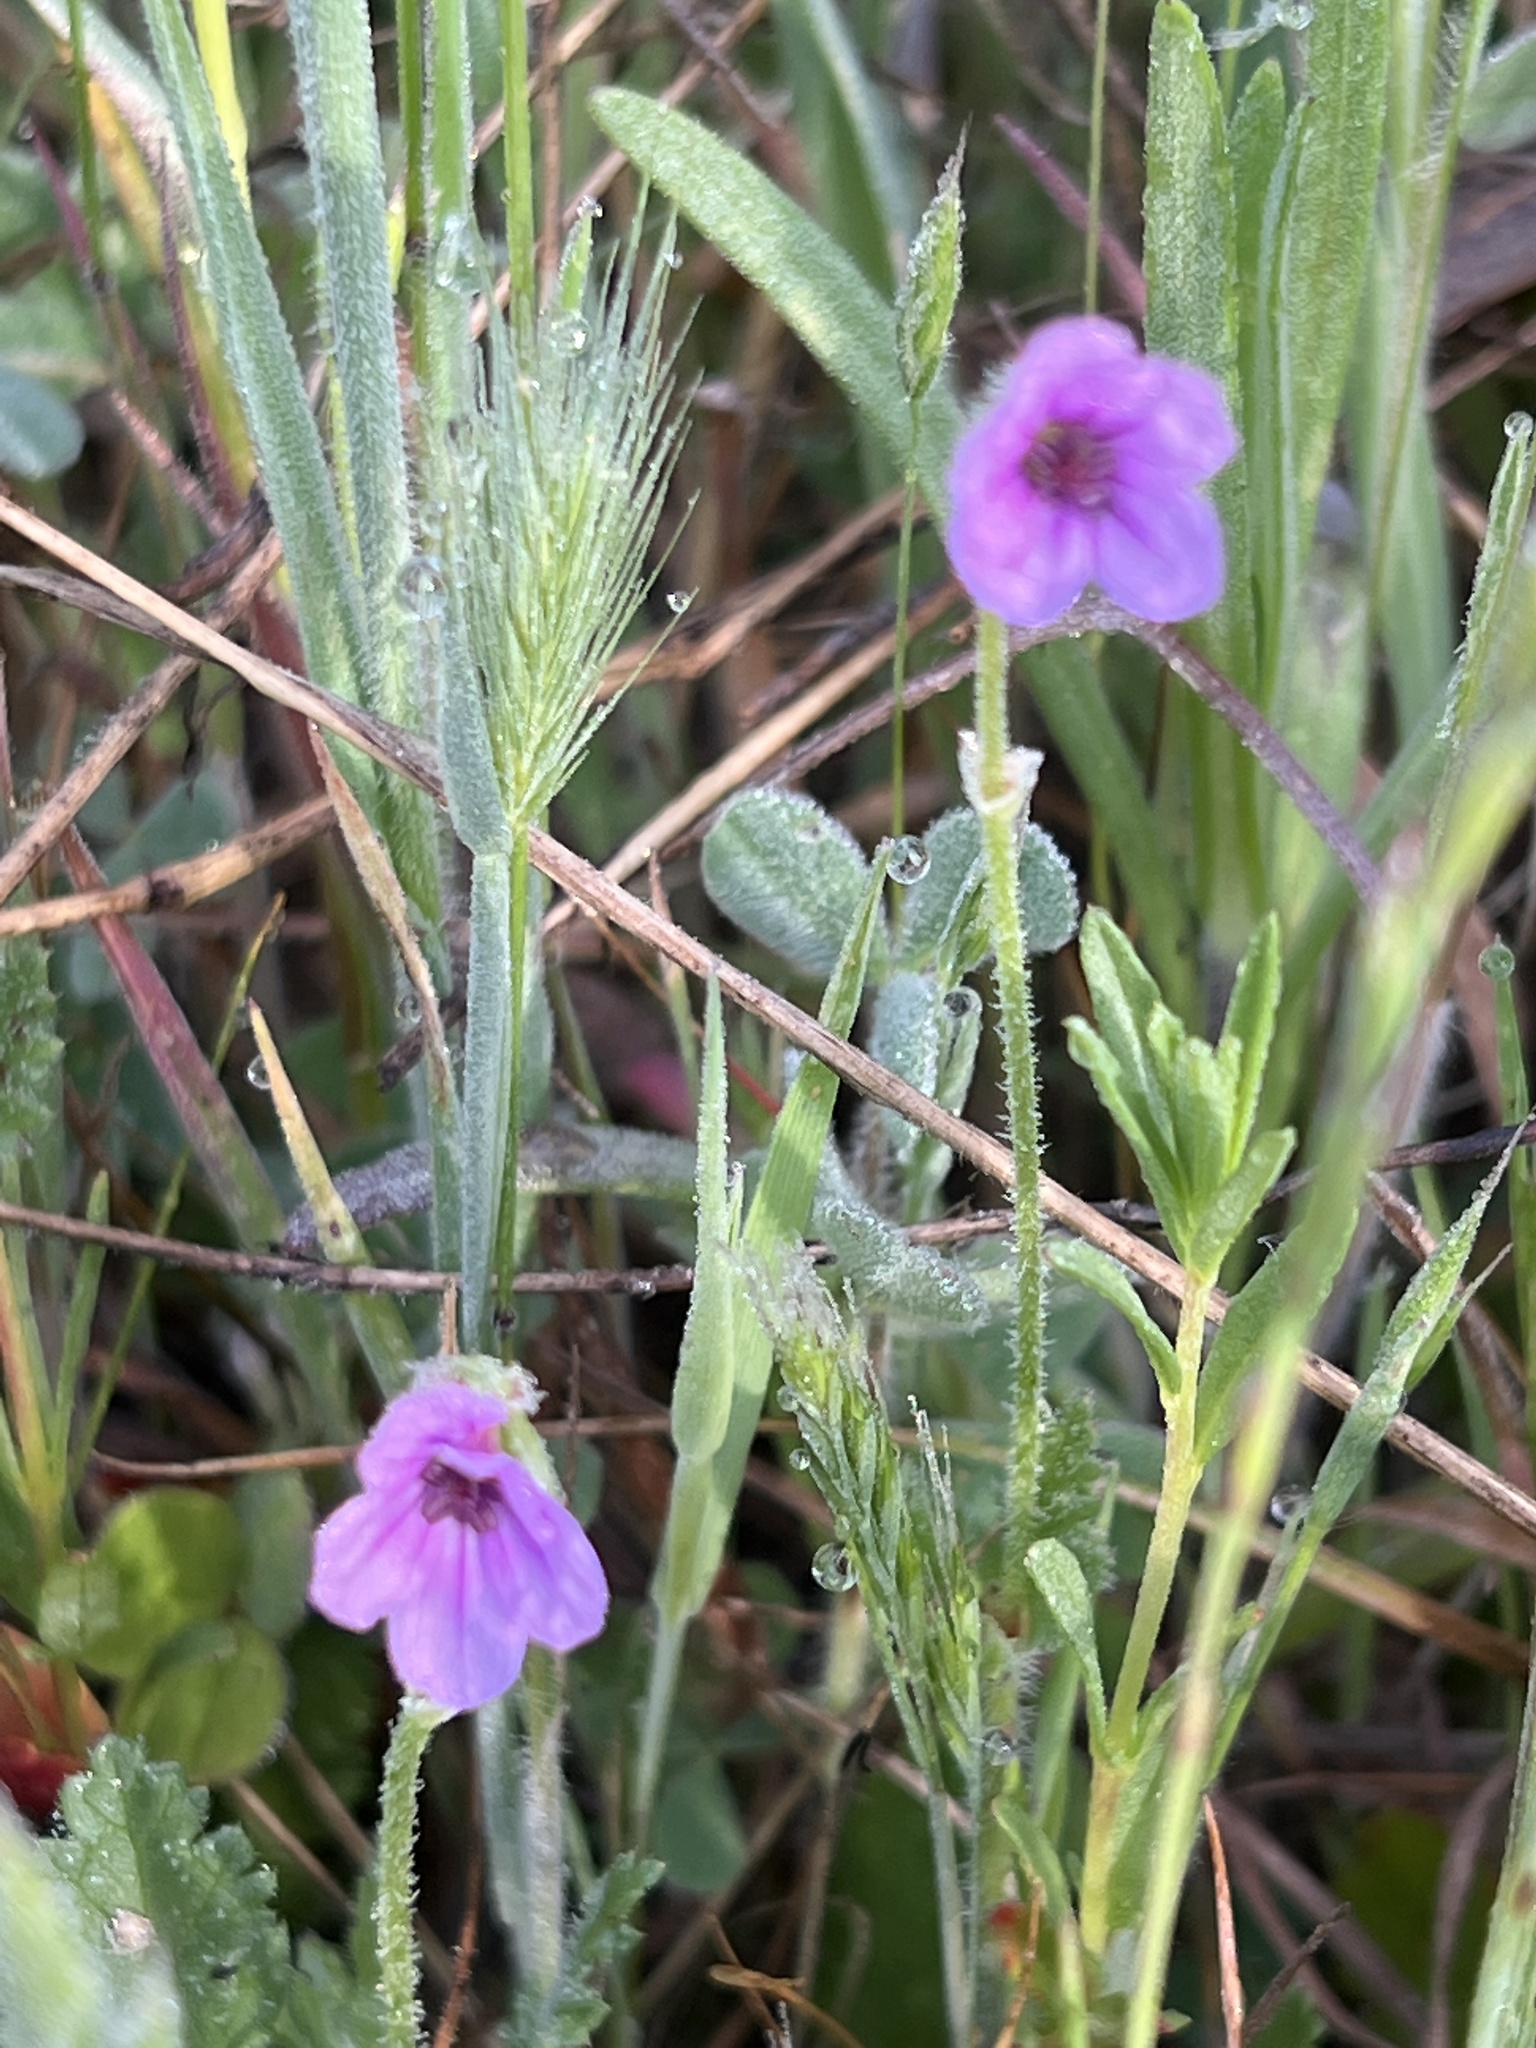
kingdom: Plantae
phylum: Tracheophyta
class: Magnoliopsida
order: Geraniales
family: Geraniaceae
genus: Erodium
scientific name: Erodium botrys
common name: Mediterranean stork's-bill
